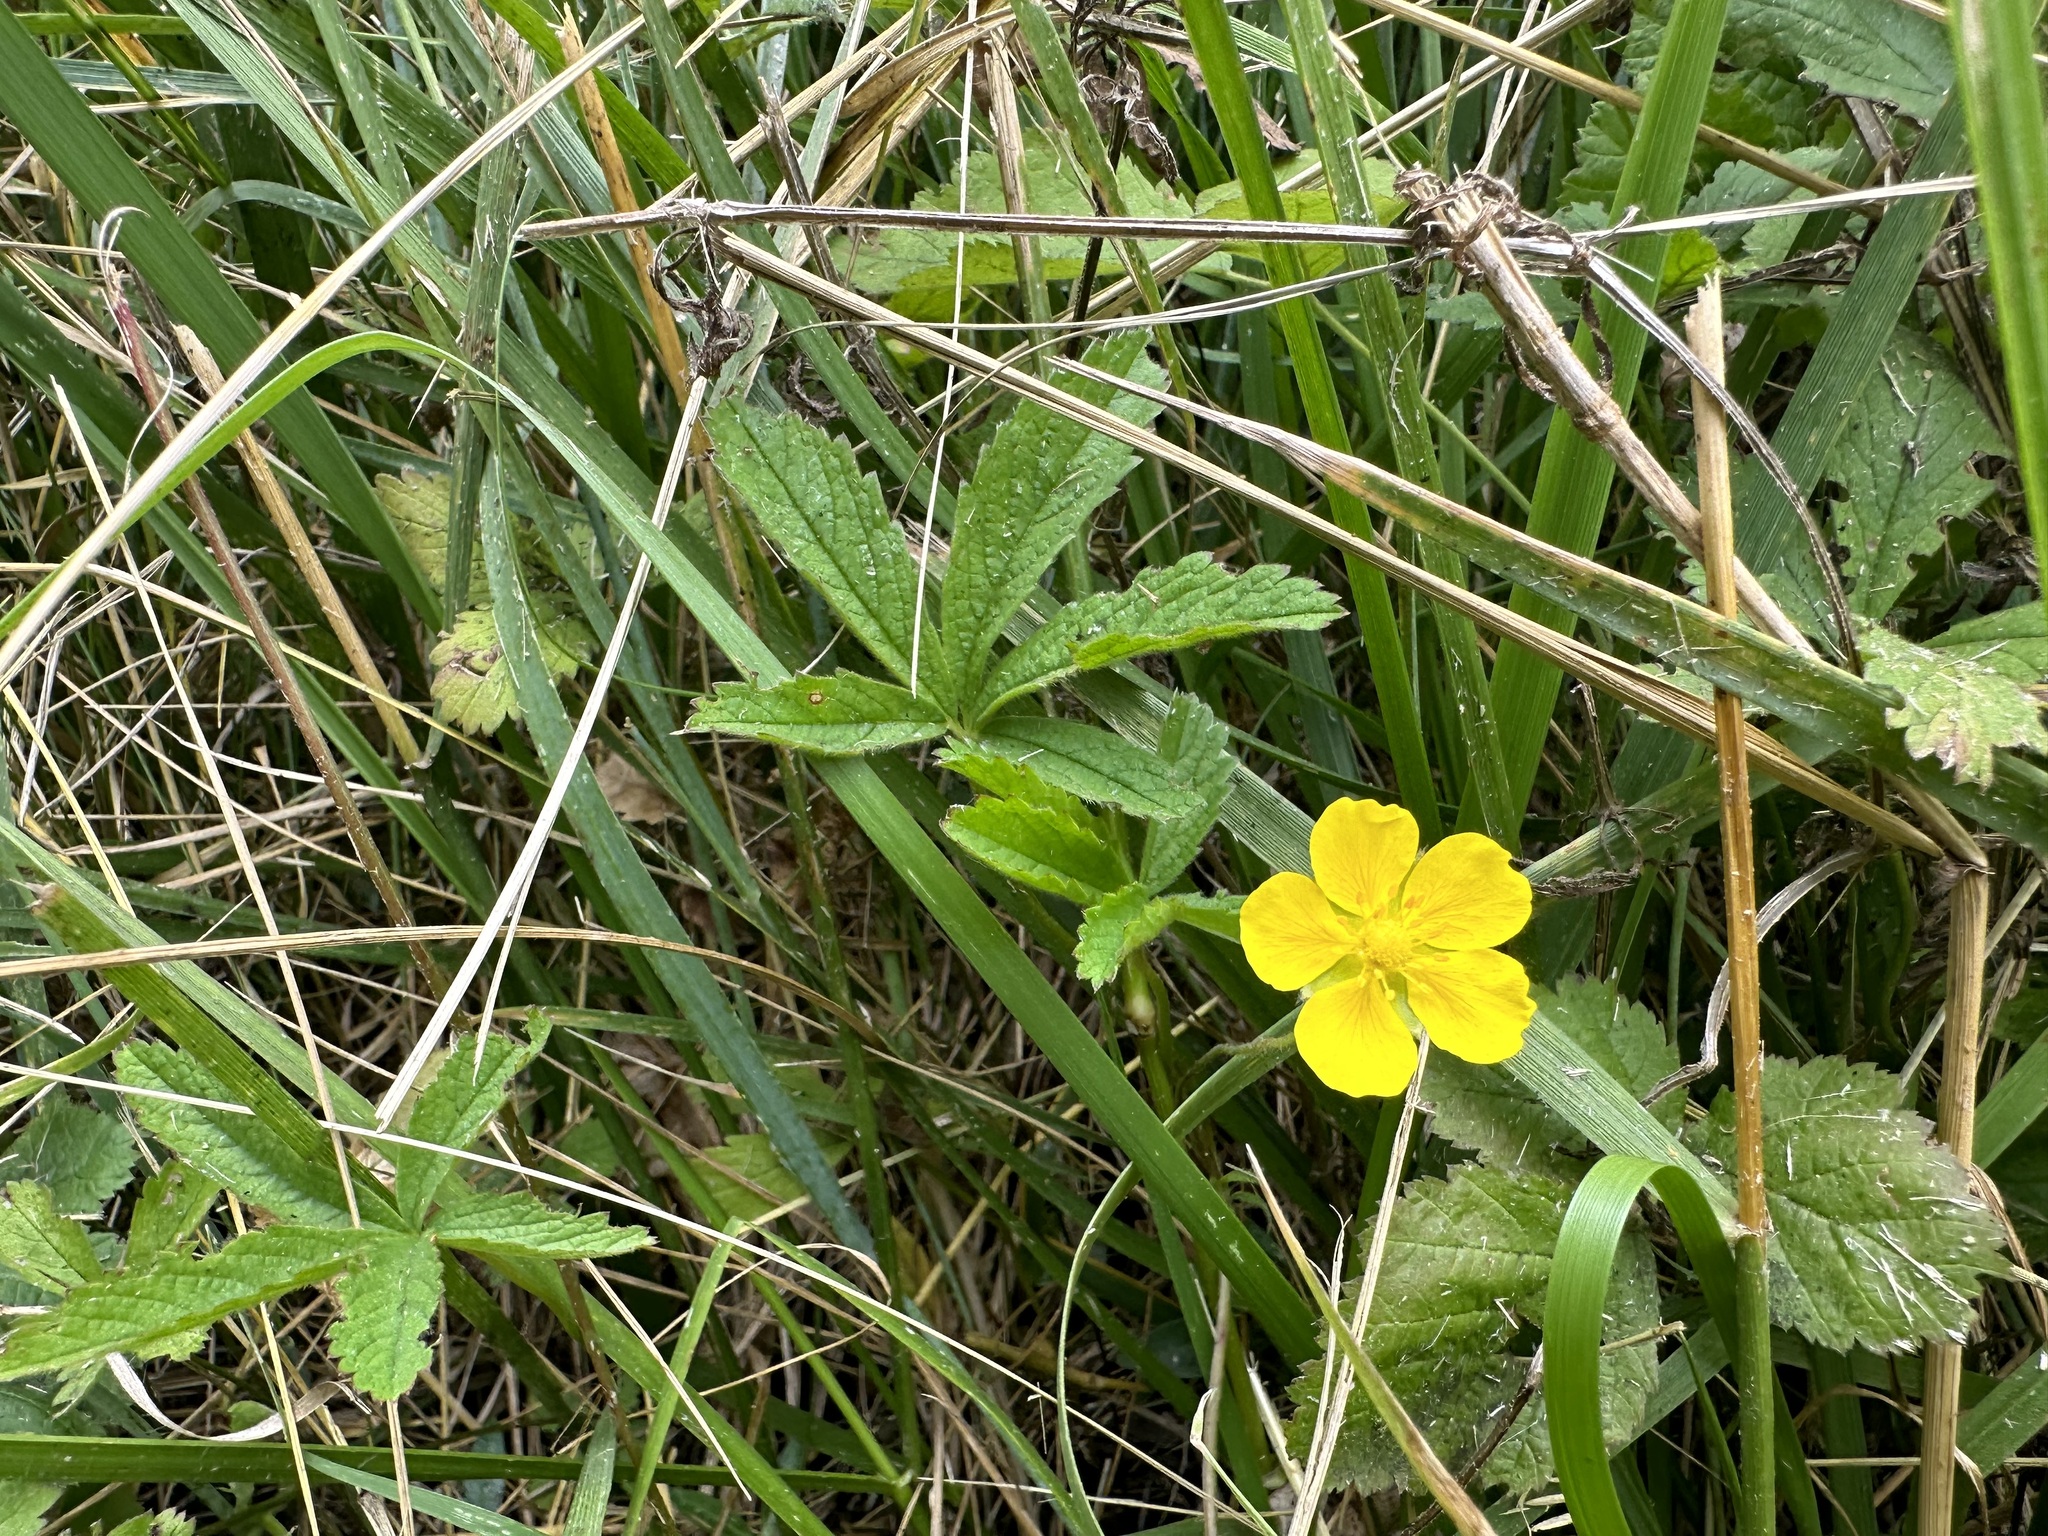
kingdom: Plantae
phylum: Tracheophyta
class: Magnoliopsida
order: Rosales
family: Rosaceae
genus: Potentilla
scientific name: Potentilla reptans
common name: Creeping cinquefoil
